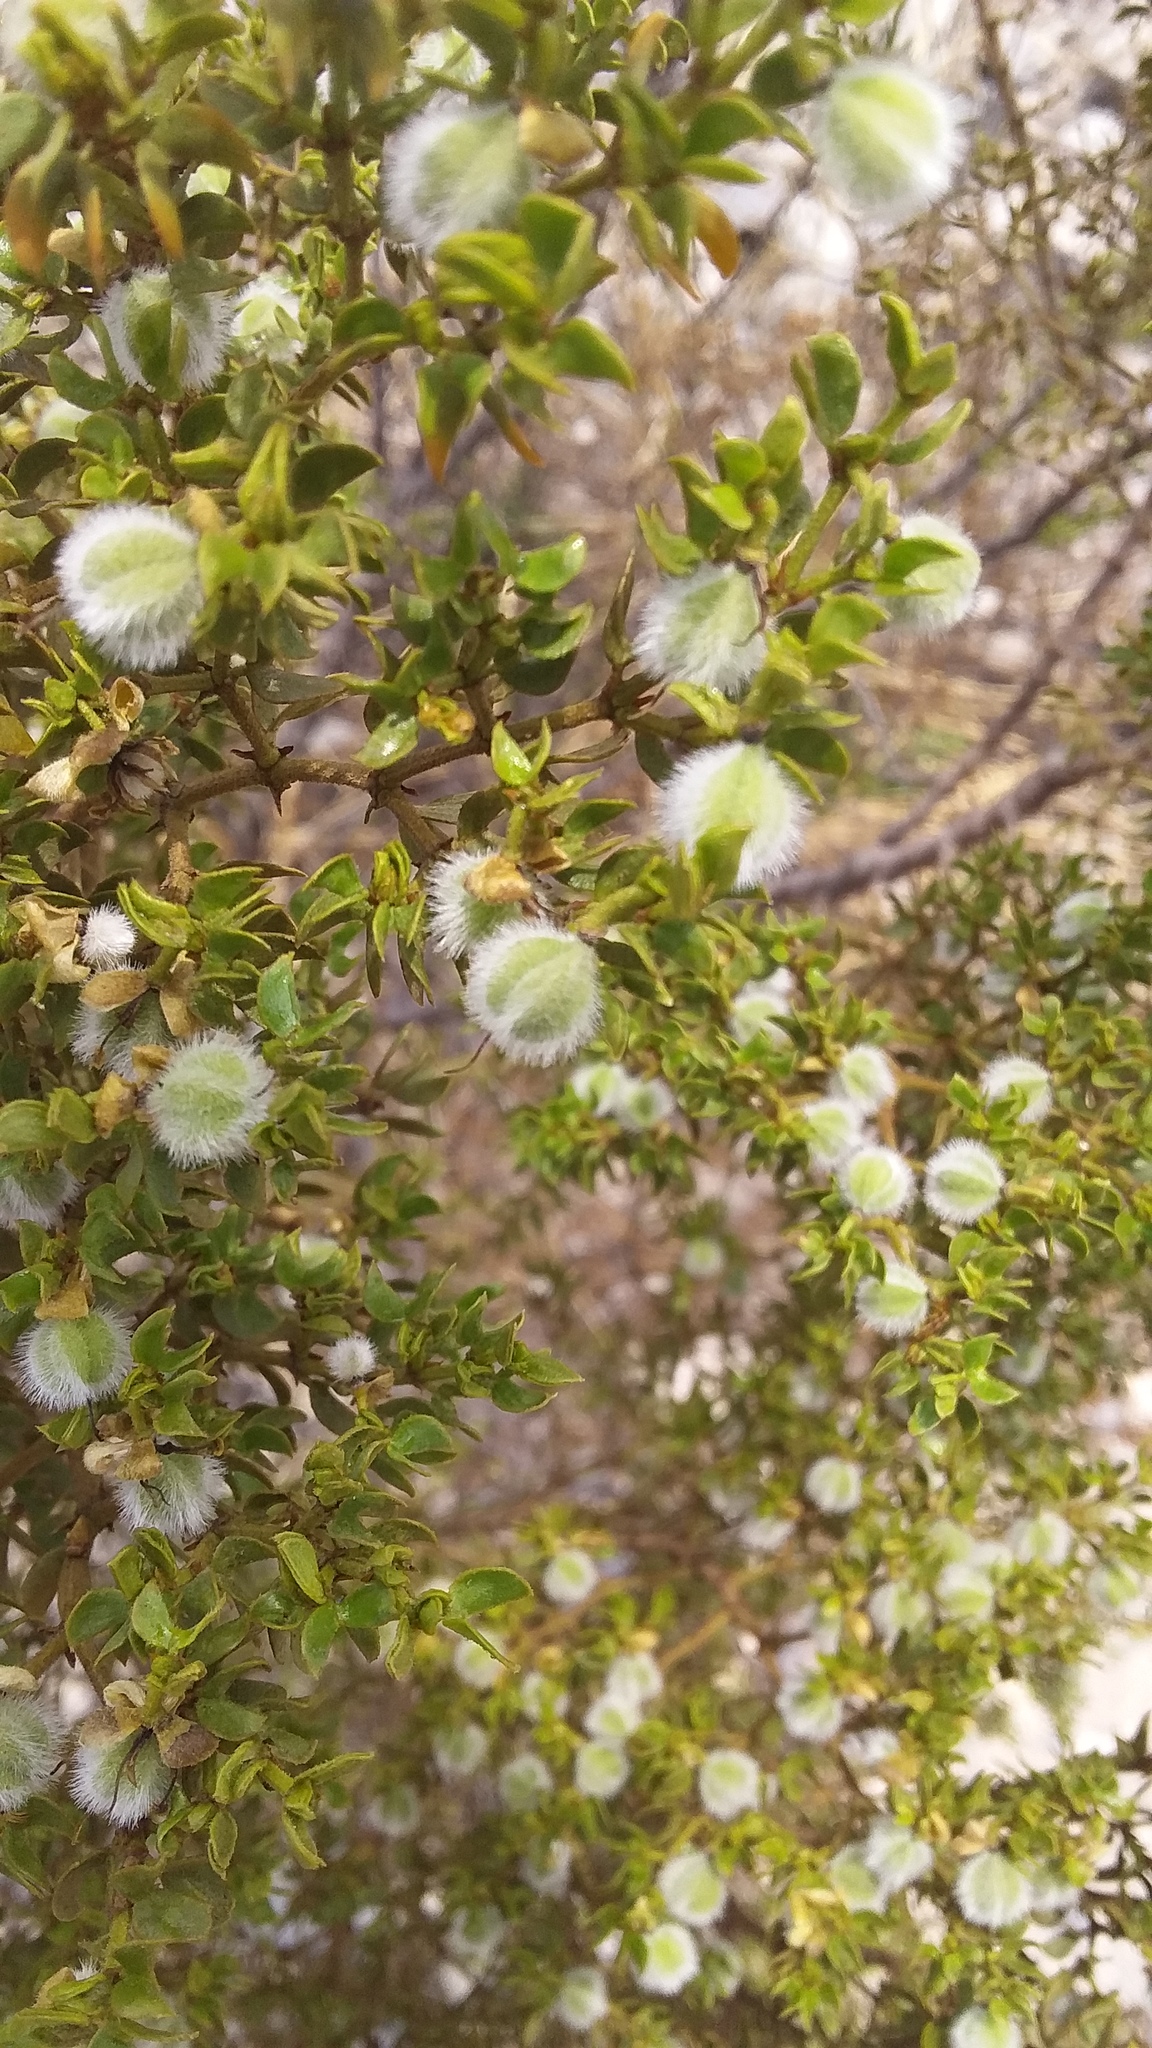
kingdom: Plantae
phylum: Tracheophyta
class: Magnoliopsida
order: Zygophyllales
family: Zygophyllaceae
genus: Larrea
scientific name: Larrea tridentata
